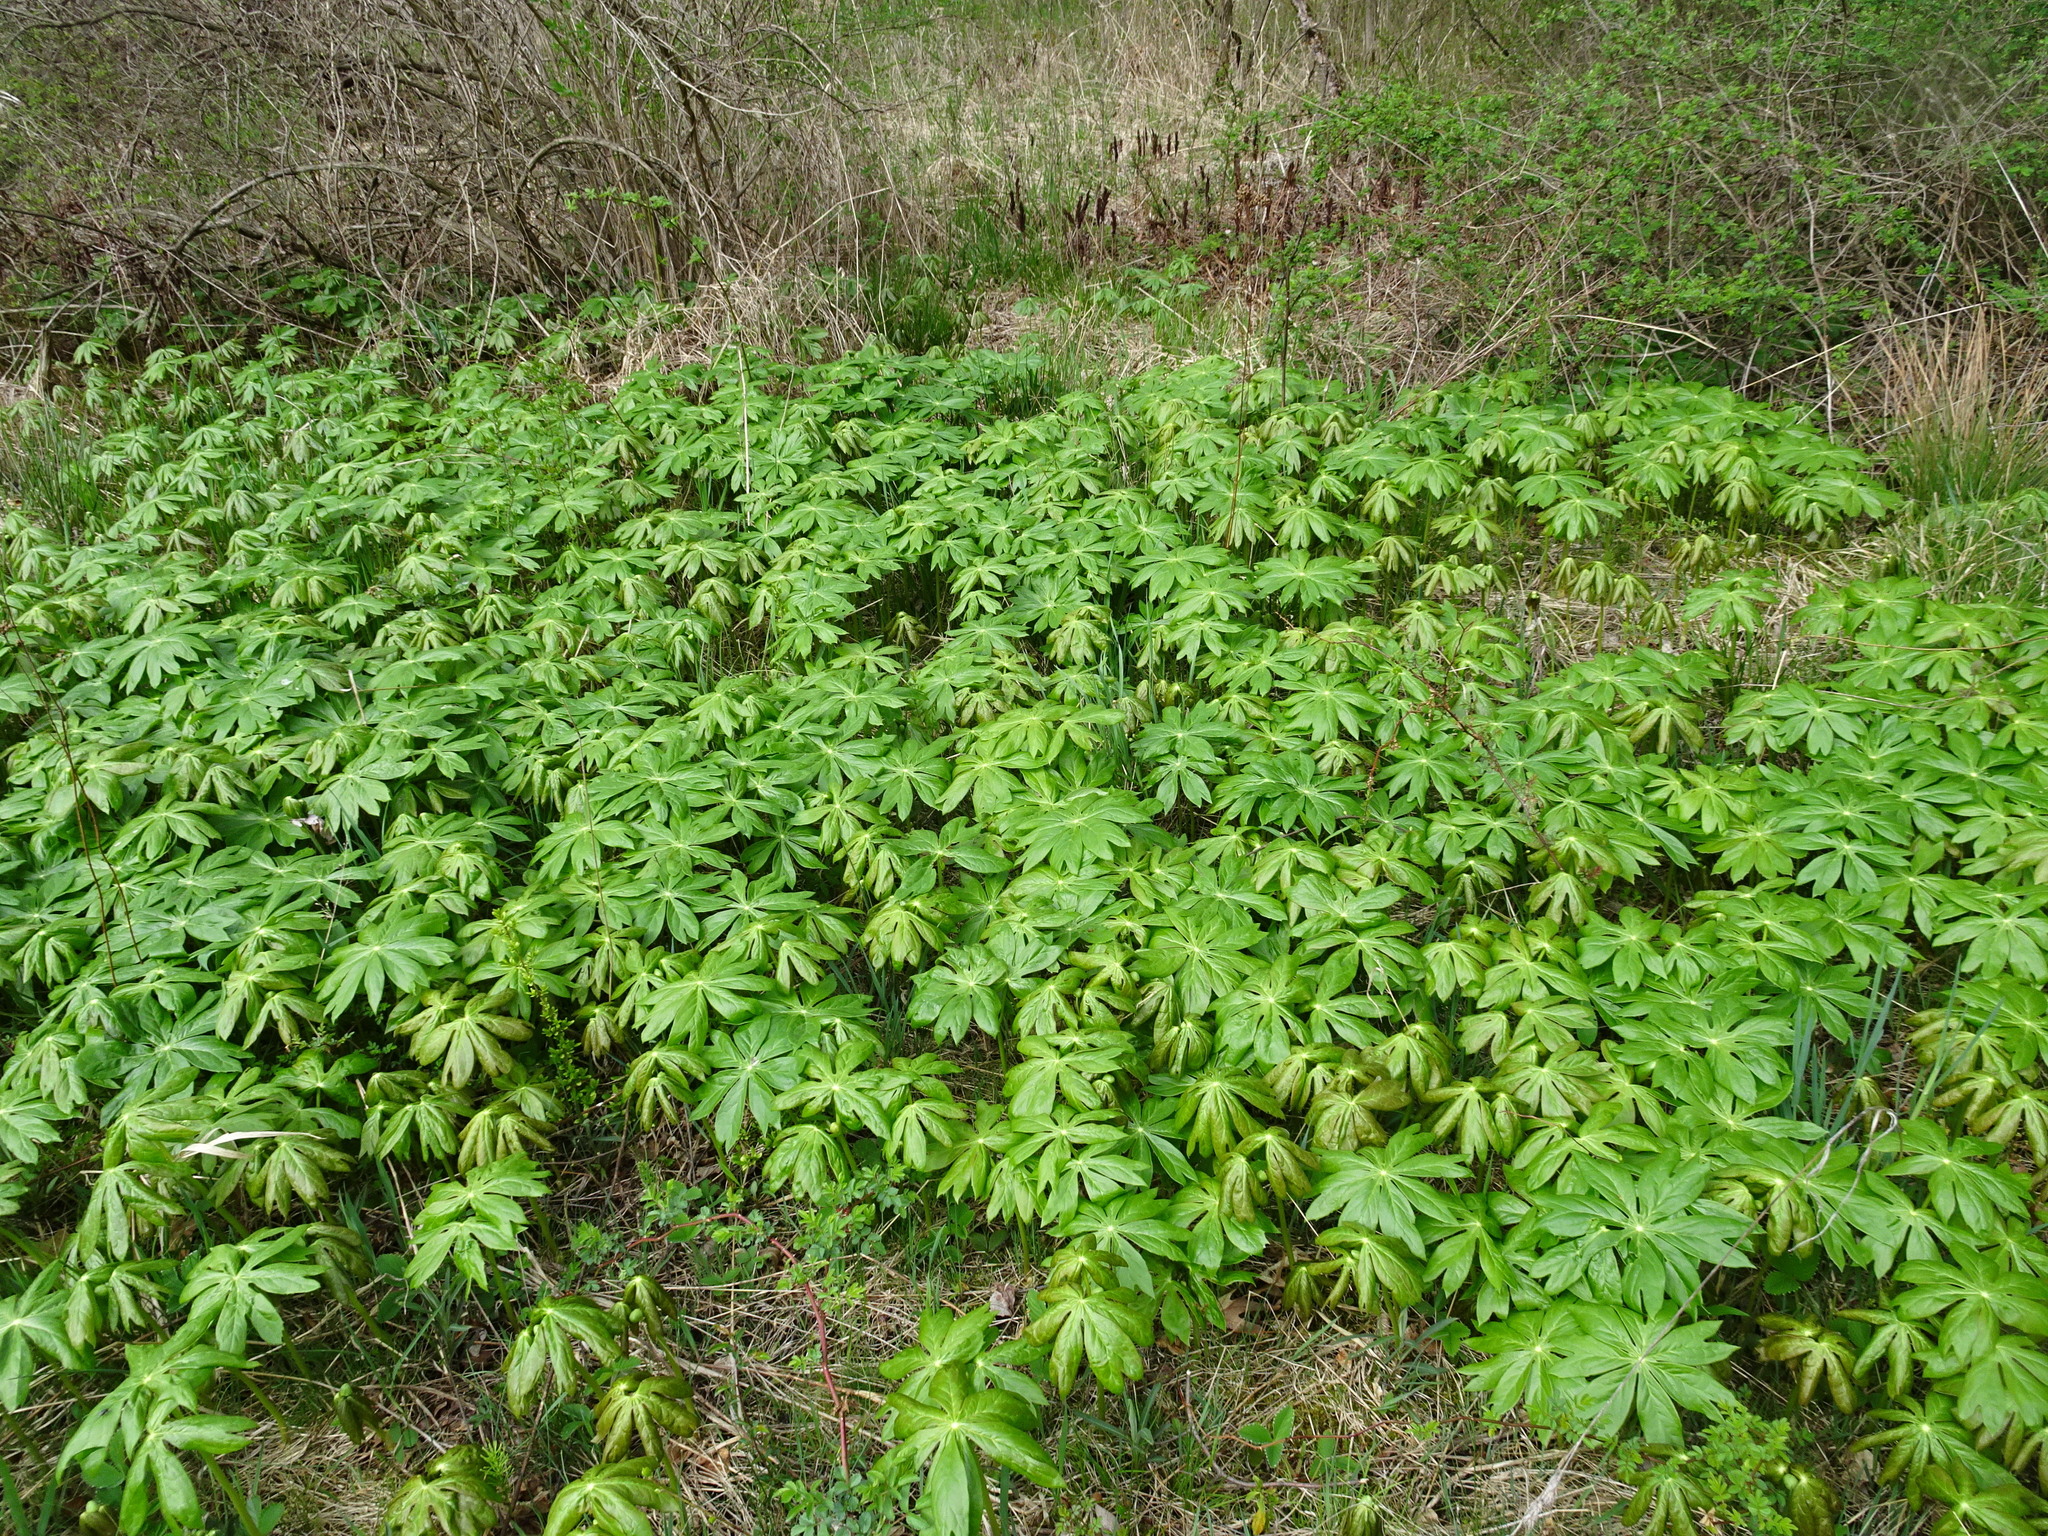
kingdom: Plantae
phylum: Tracheophyta
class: Magnoliopsida
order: Ranunculales
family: Berberidaceae
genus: Podophyllum
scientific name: Podophyllum peltatum
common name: Wild mandrake
